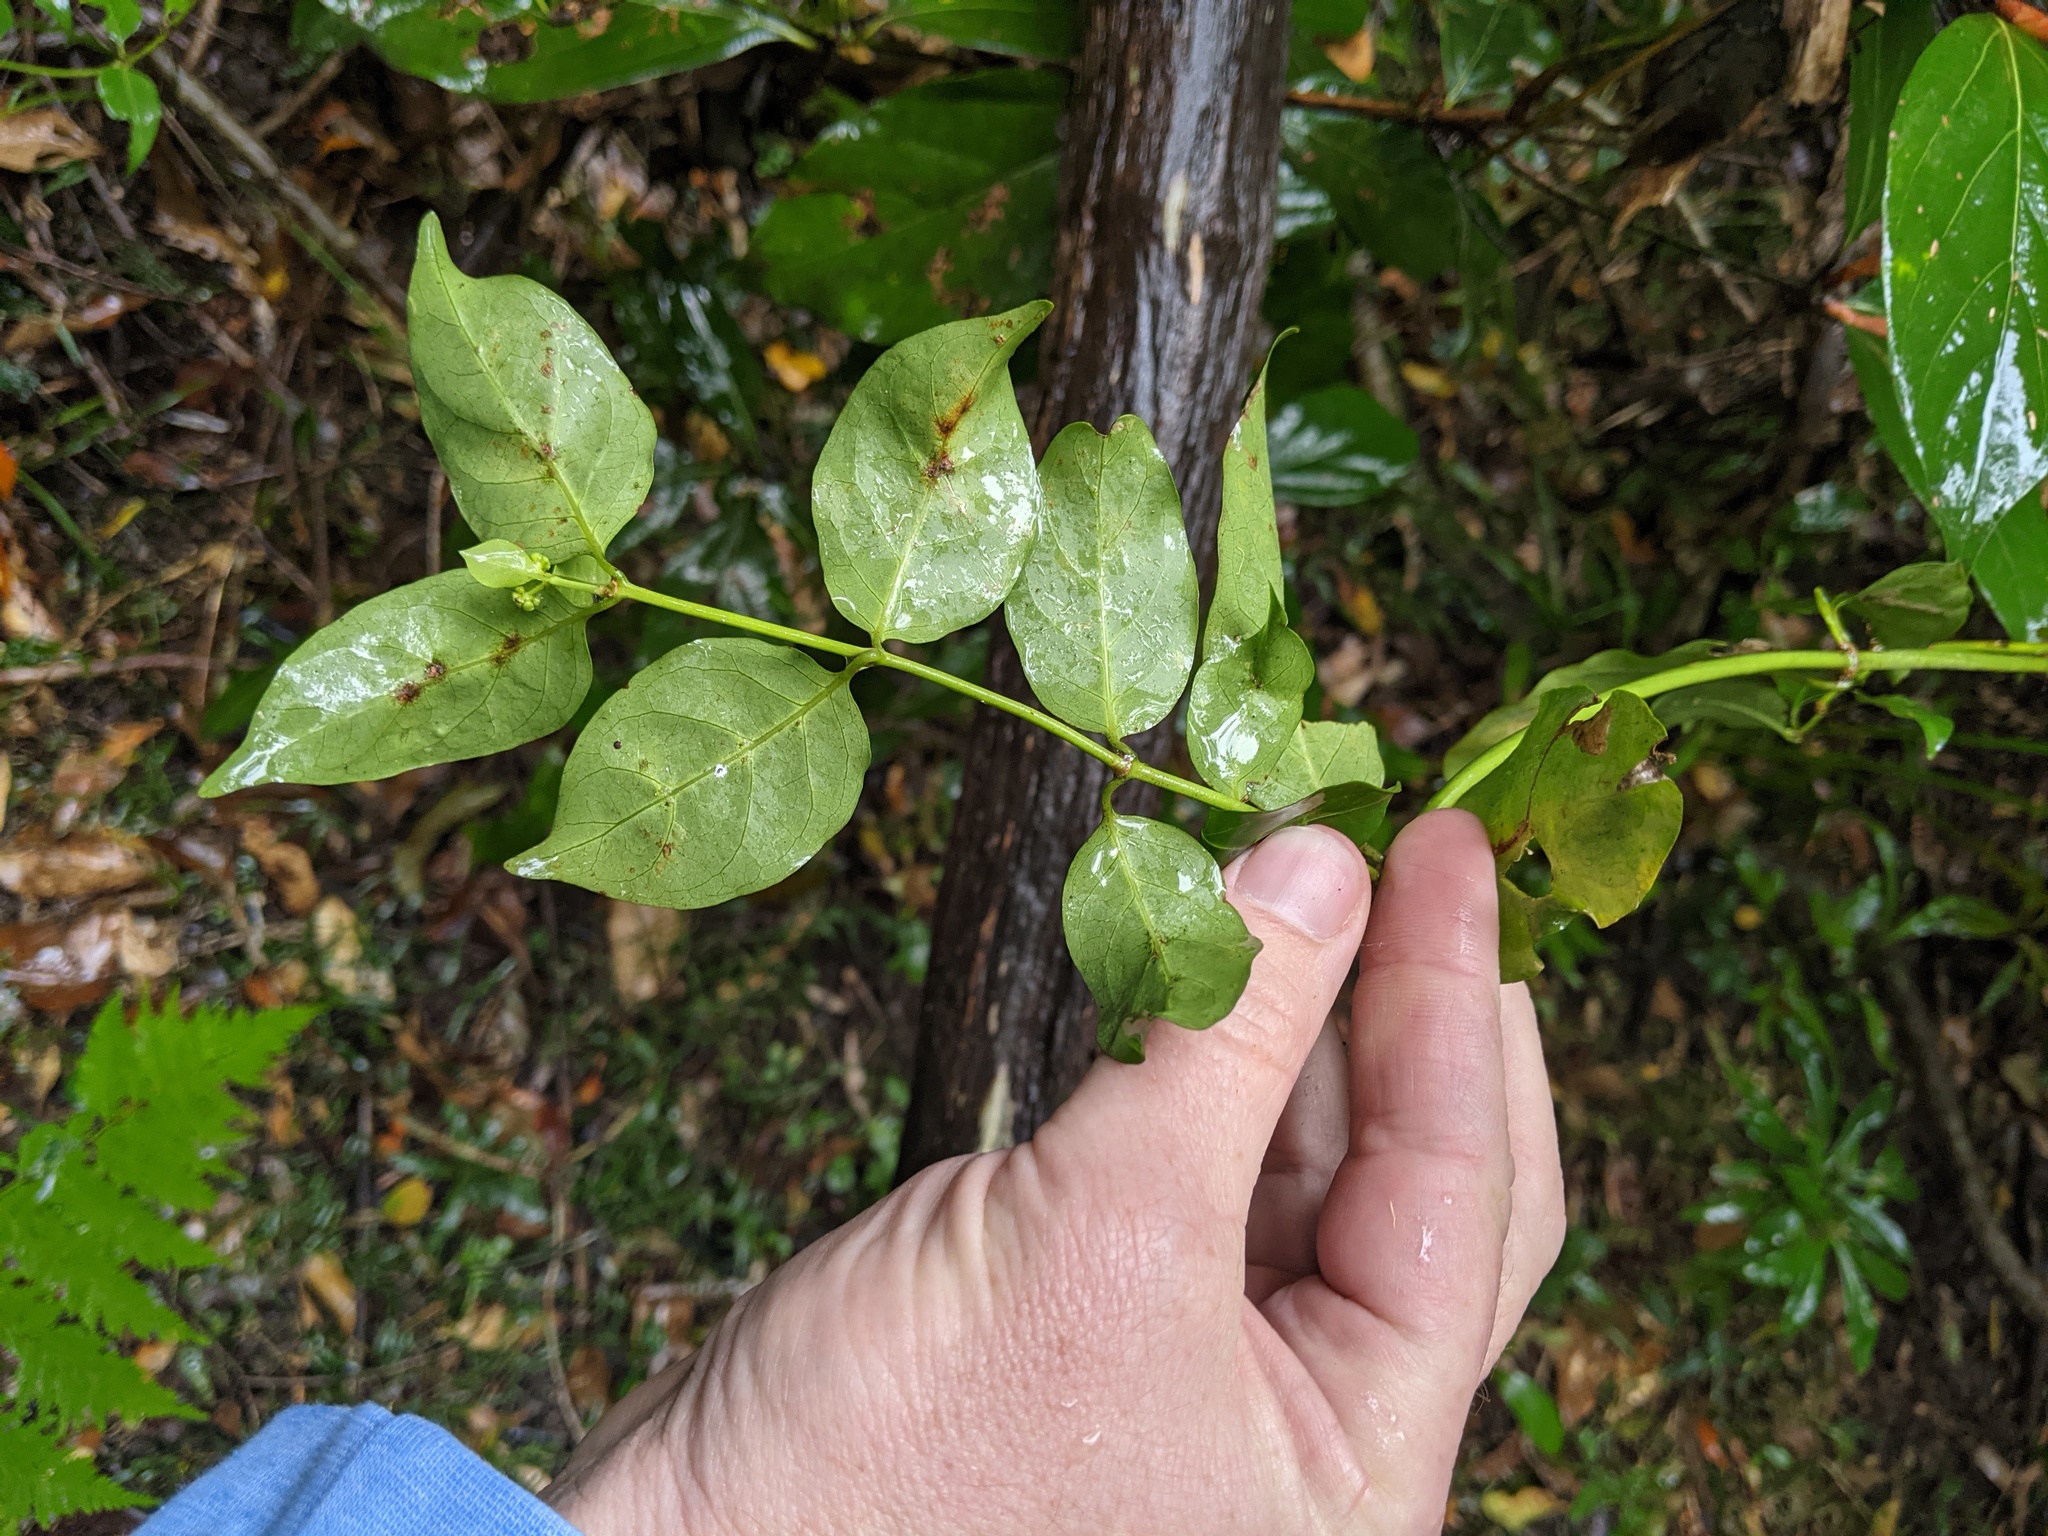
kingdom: Plantae
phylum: Tracheophyta
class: Magnoliopsida
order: Gentianales
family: Rubiaceae
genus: Gynochthodes
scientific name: Gynochthodes jasminoides
